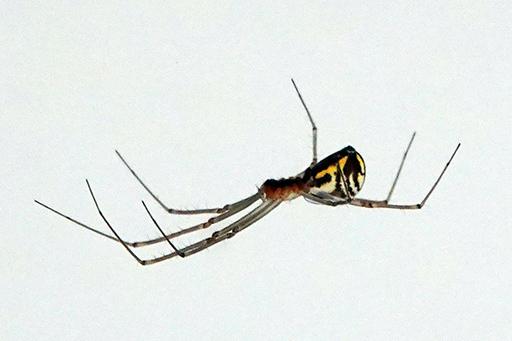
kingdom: Animalia
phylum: Arthropoda
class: Arachnida
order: Araneae
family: Linyphiidae
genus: Neriene
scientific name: Neriene radiata
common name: Filmy dome spider
